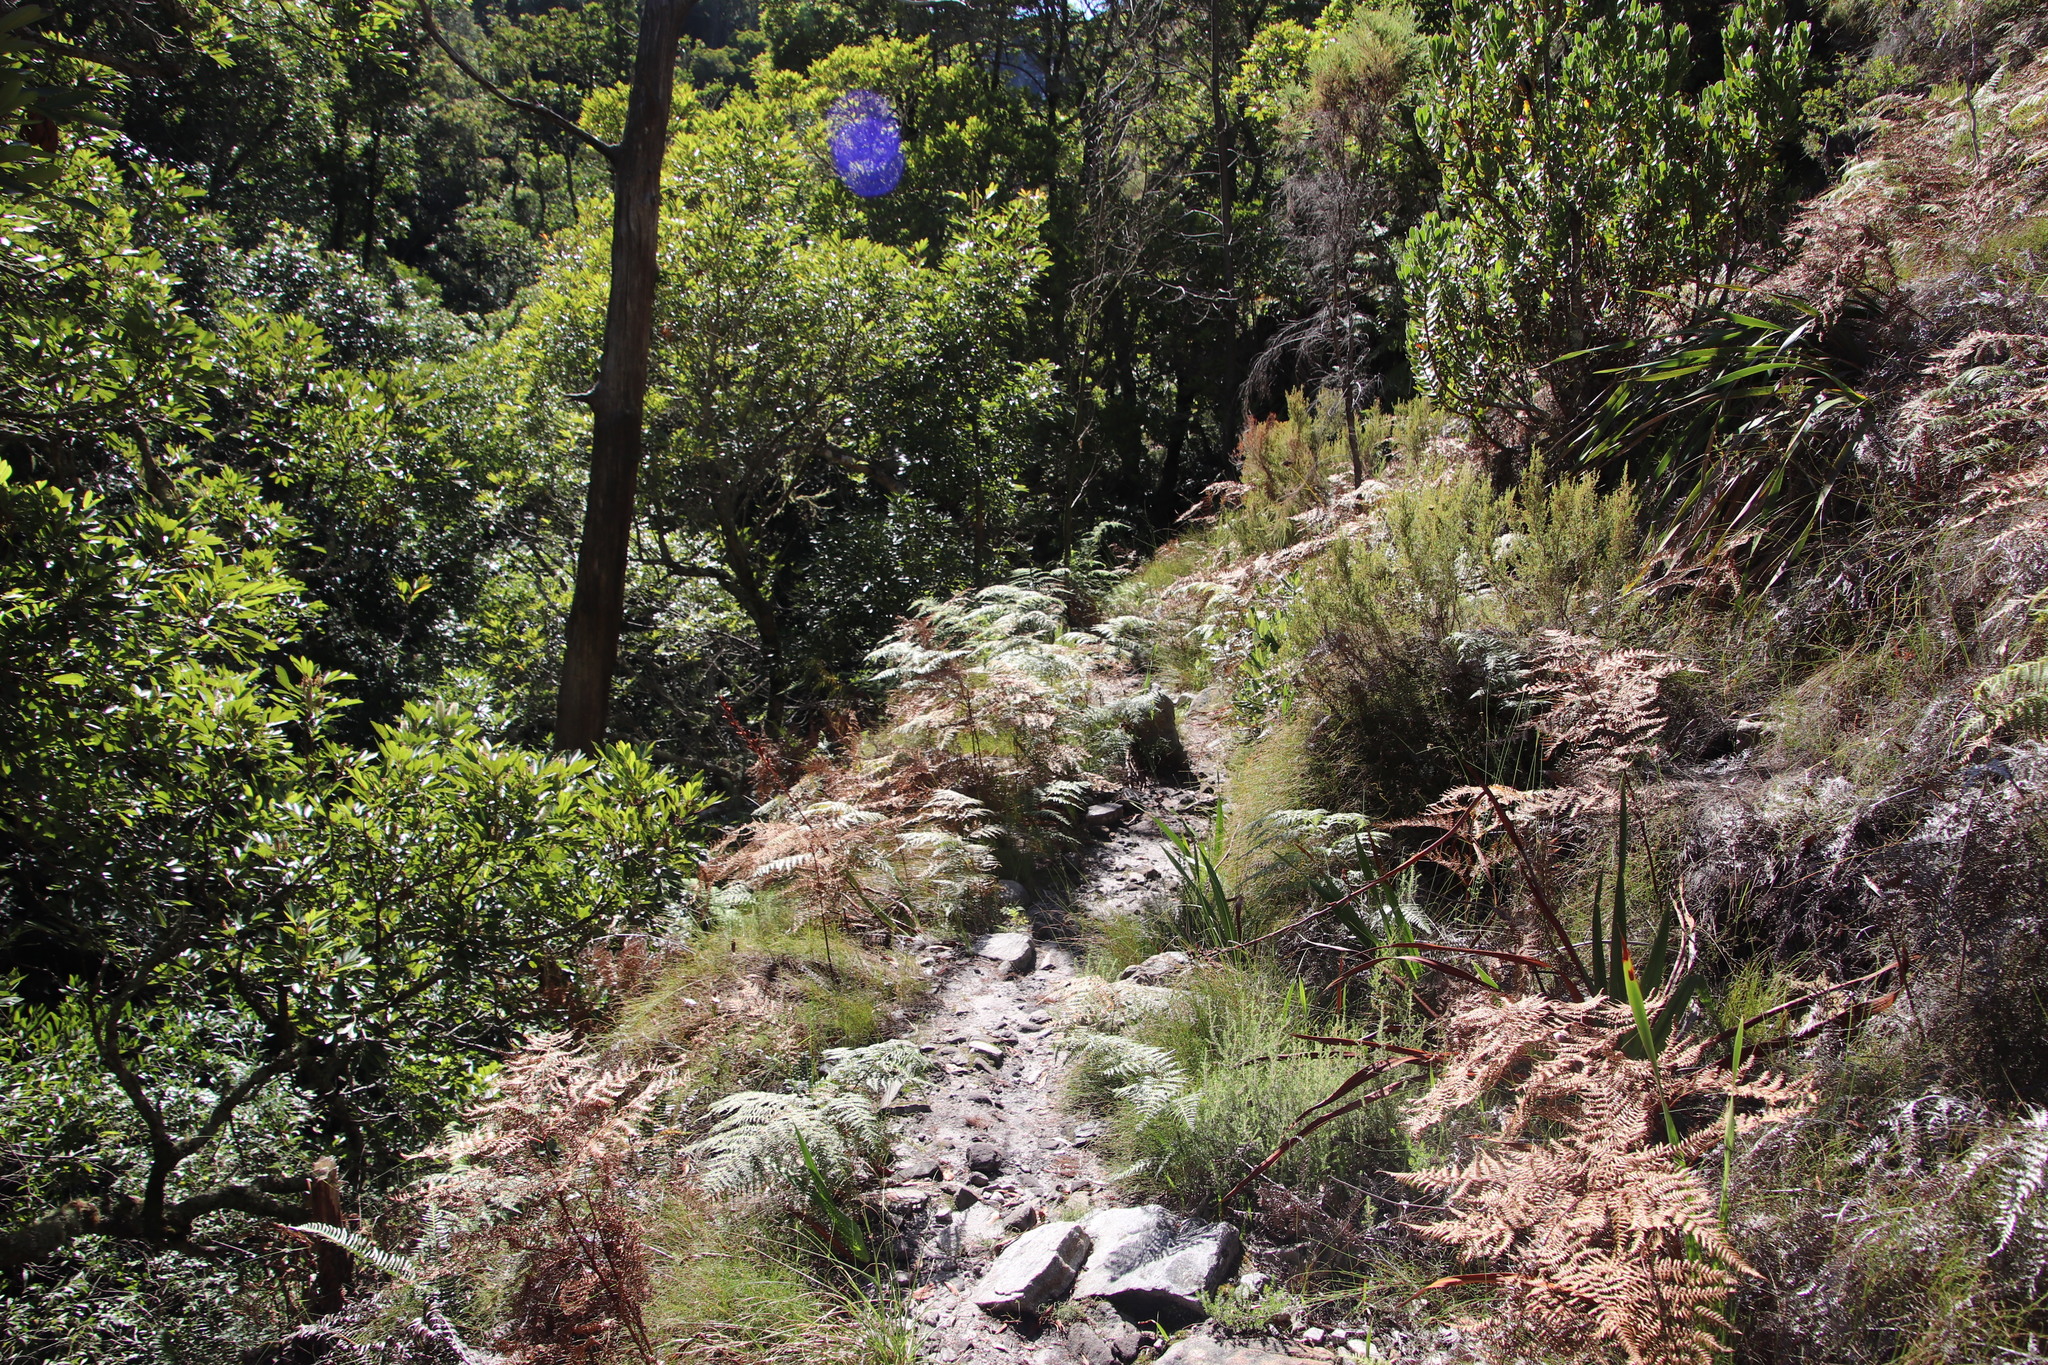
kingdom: Plantae
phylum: Tracheophyta
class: Polypodiopsida
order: Polypodiales
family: Dennstaedtiaceae
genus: Pteridium
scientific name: Pteridium aquilinum
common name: Bracken
